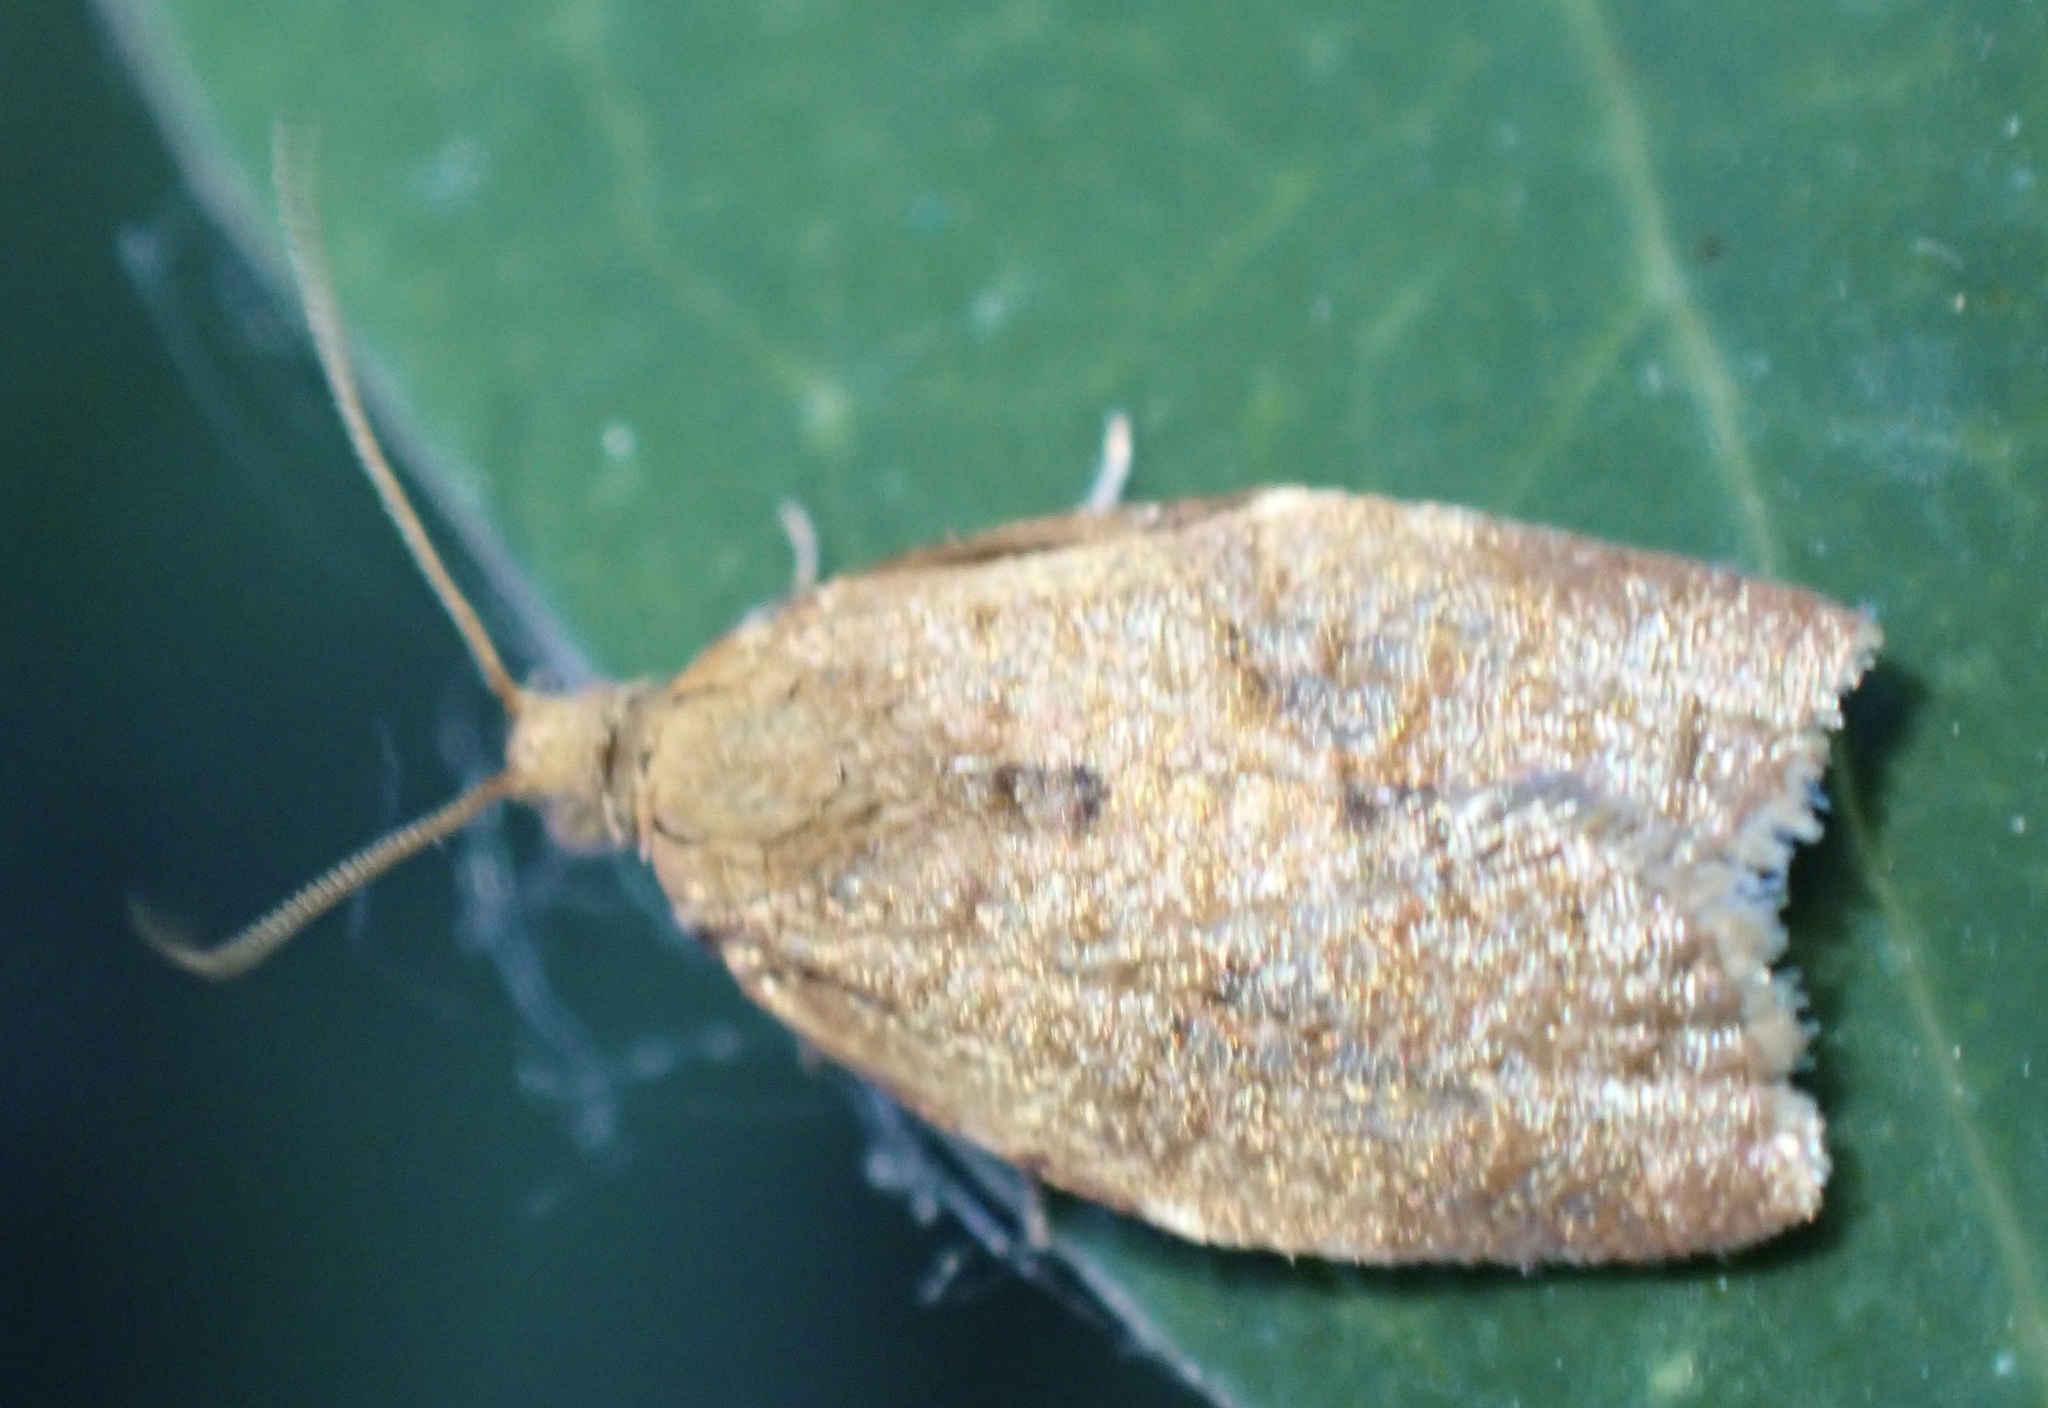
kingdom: Animalia
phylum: Arthropoda
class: Insecta
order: Lepidoptera
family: Tortricidae
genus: Clepsis
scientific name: Clepsis consimilana
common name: Privet tortrix
